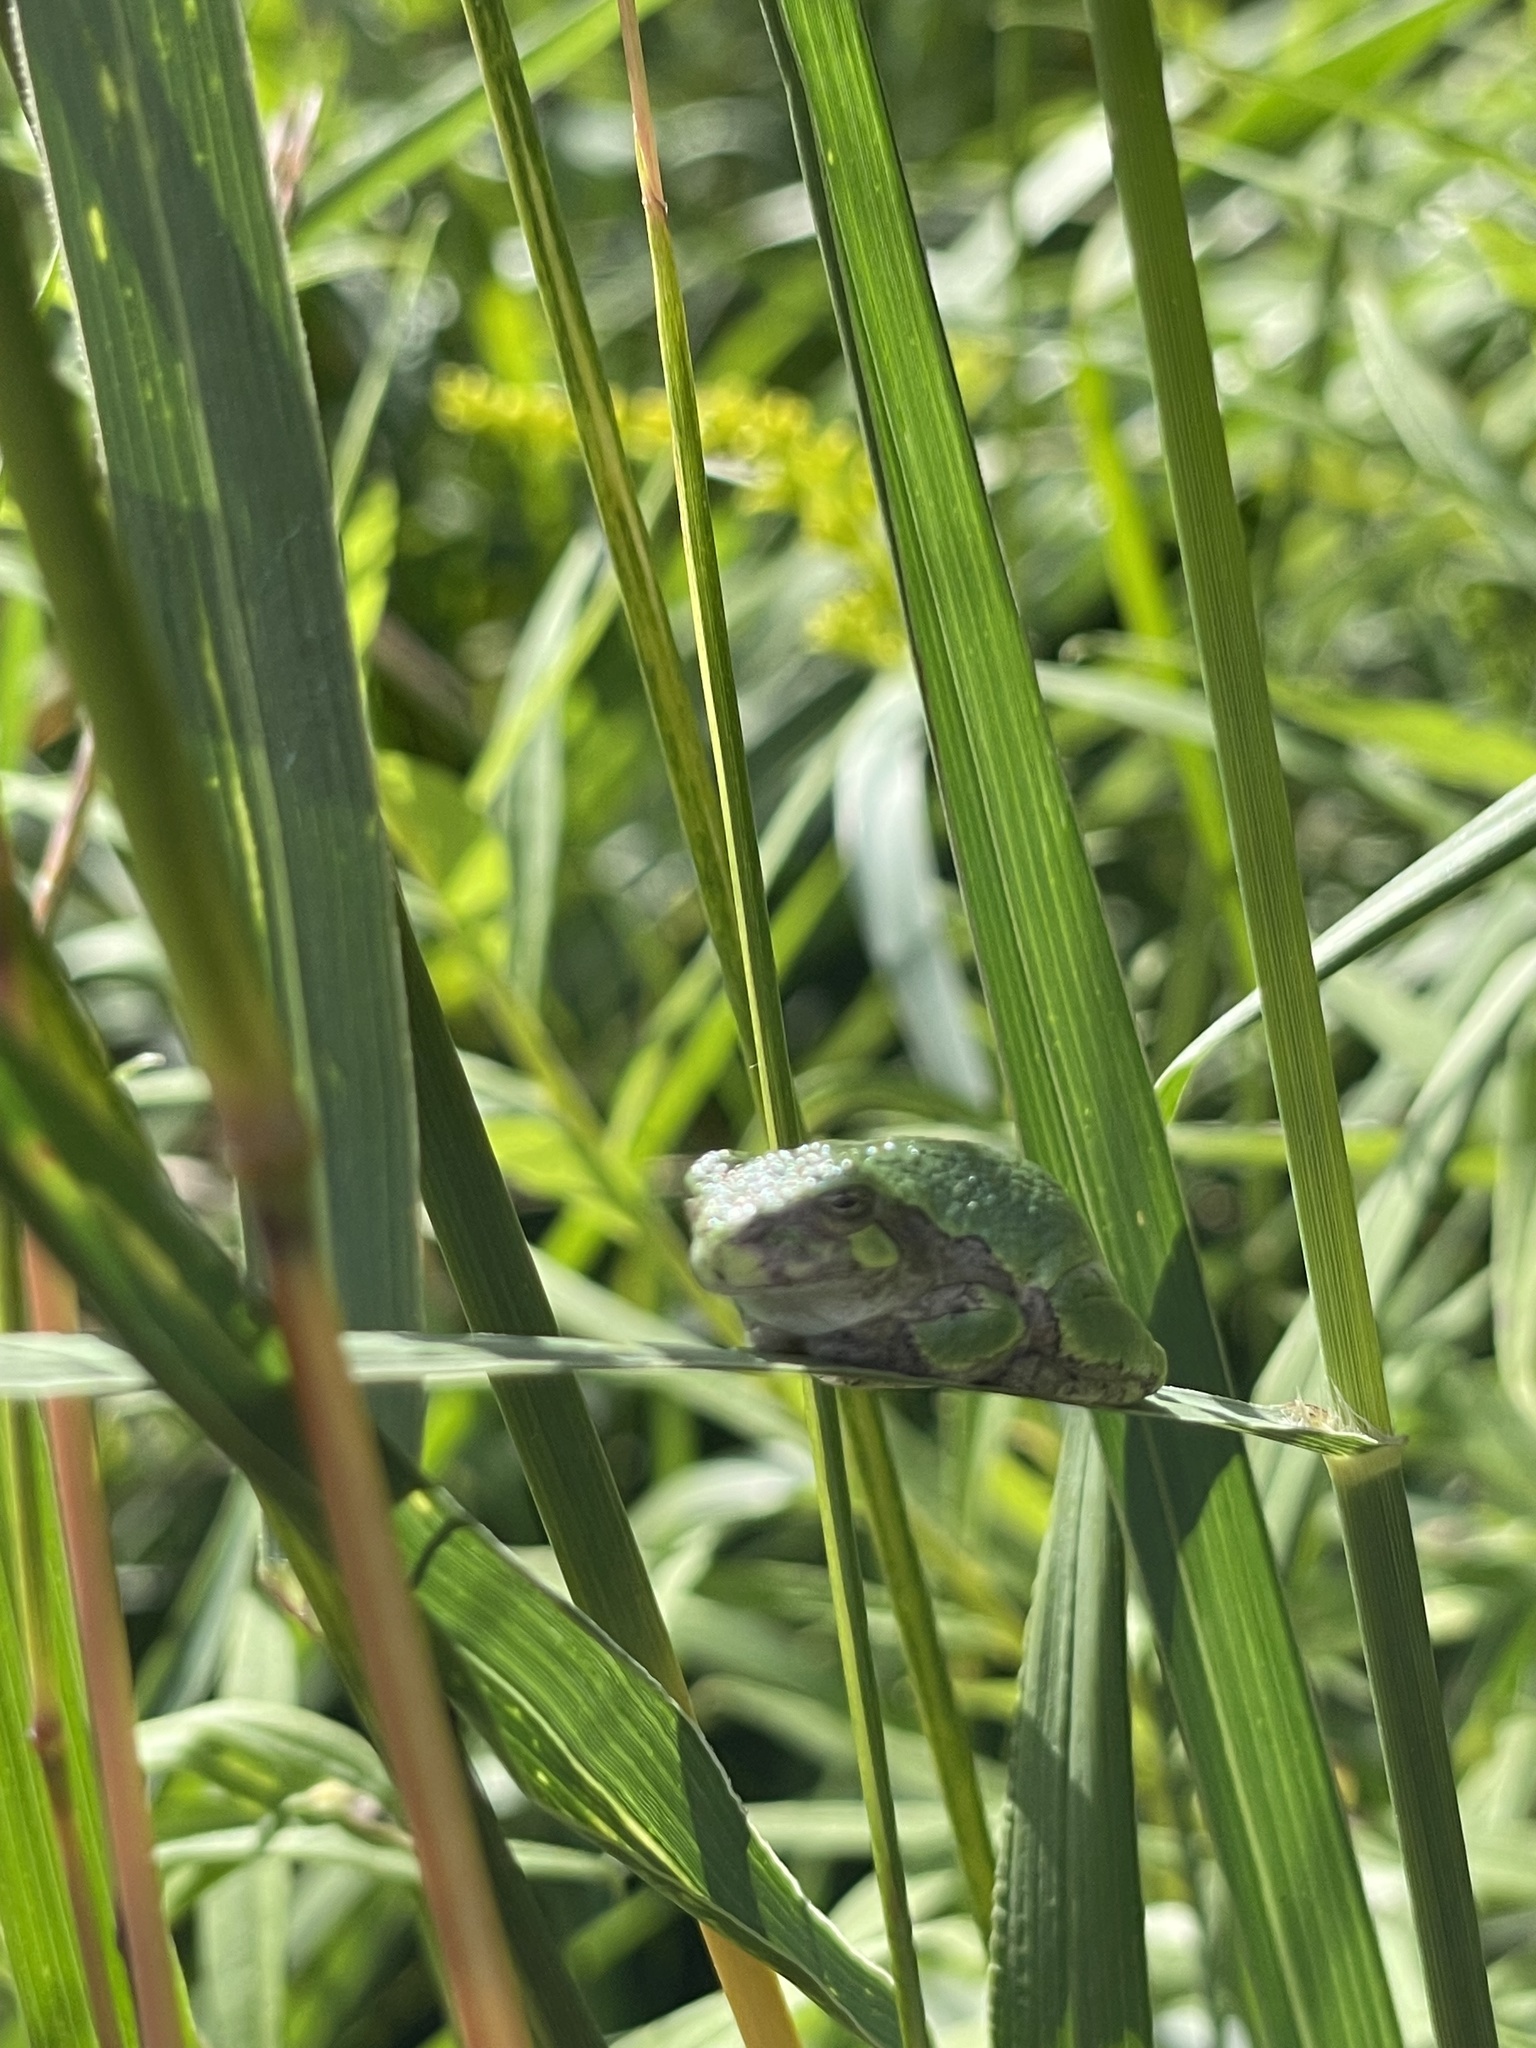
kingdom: Animalia
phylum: Chordata
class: Amphibia
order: Anura
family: Hylidae
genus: Dryophytes
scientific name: Dryophytes versicolor
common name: Gray treefrog
